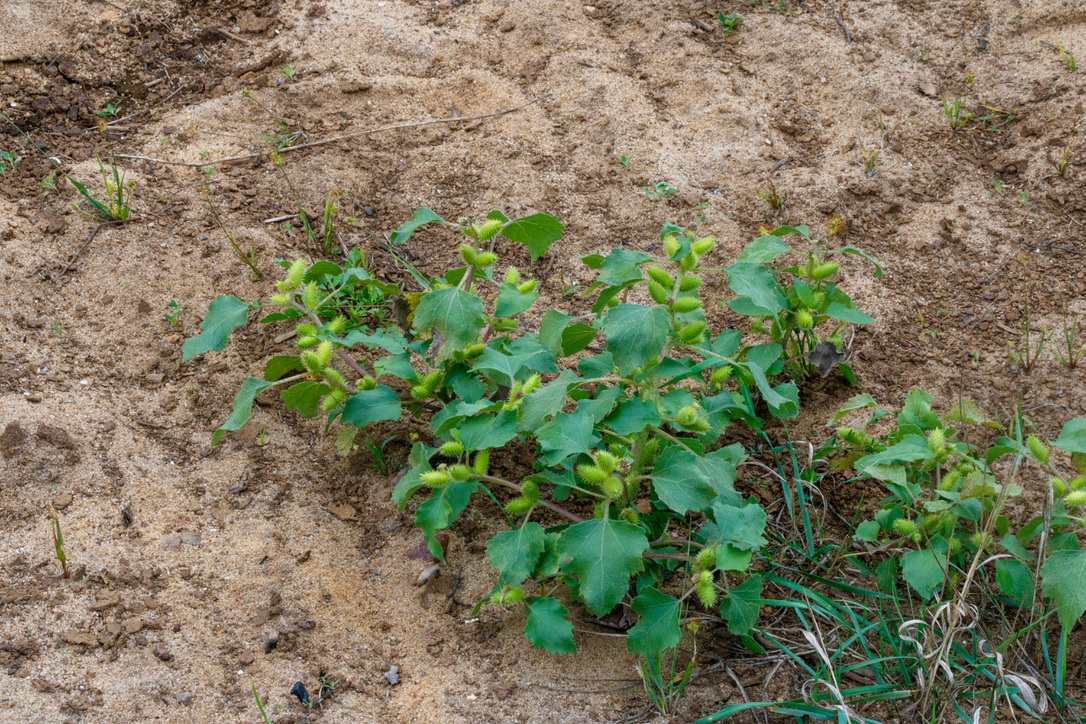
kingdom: Plantae
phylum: Tracheophyta
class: Magnoliopsida
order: Asterales
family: Asteraceae
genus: Xanthium
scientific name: Xanthium orientale
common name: Californian burr
